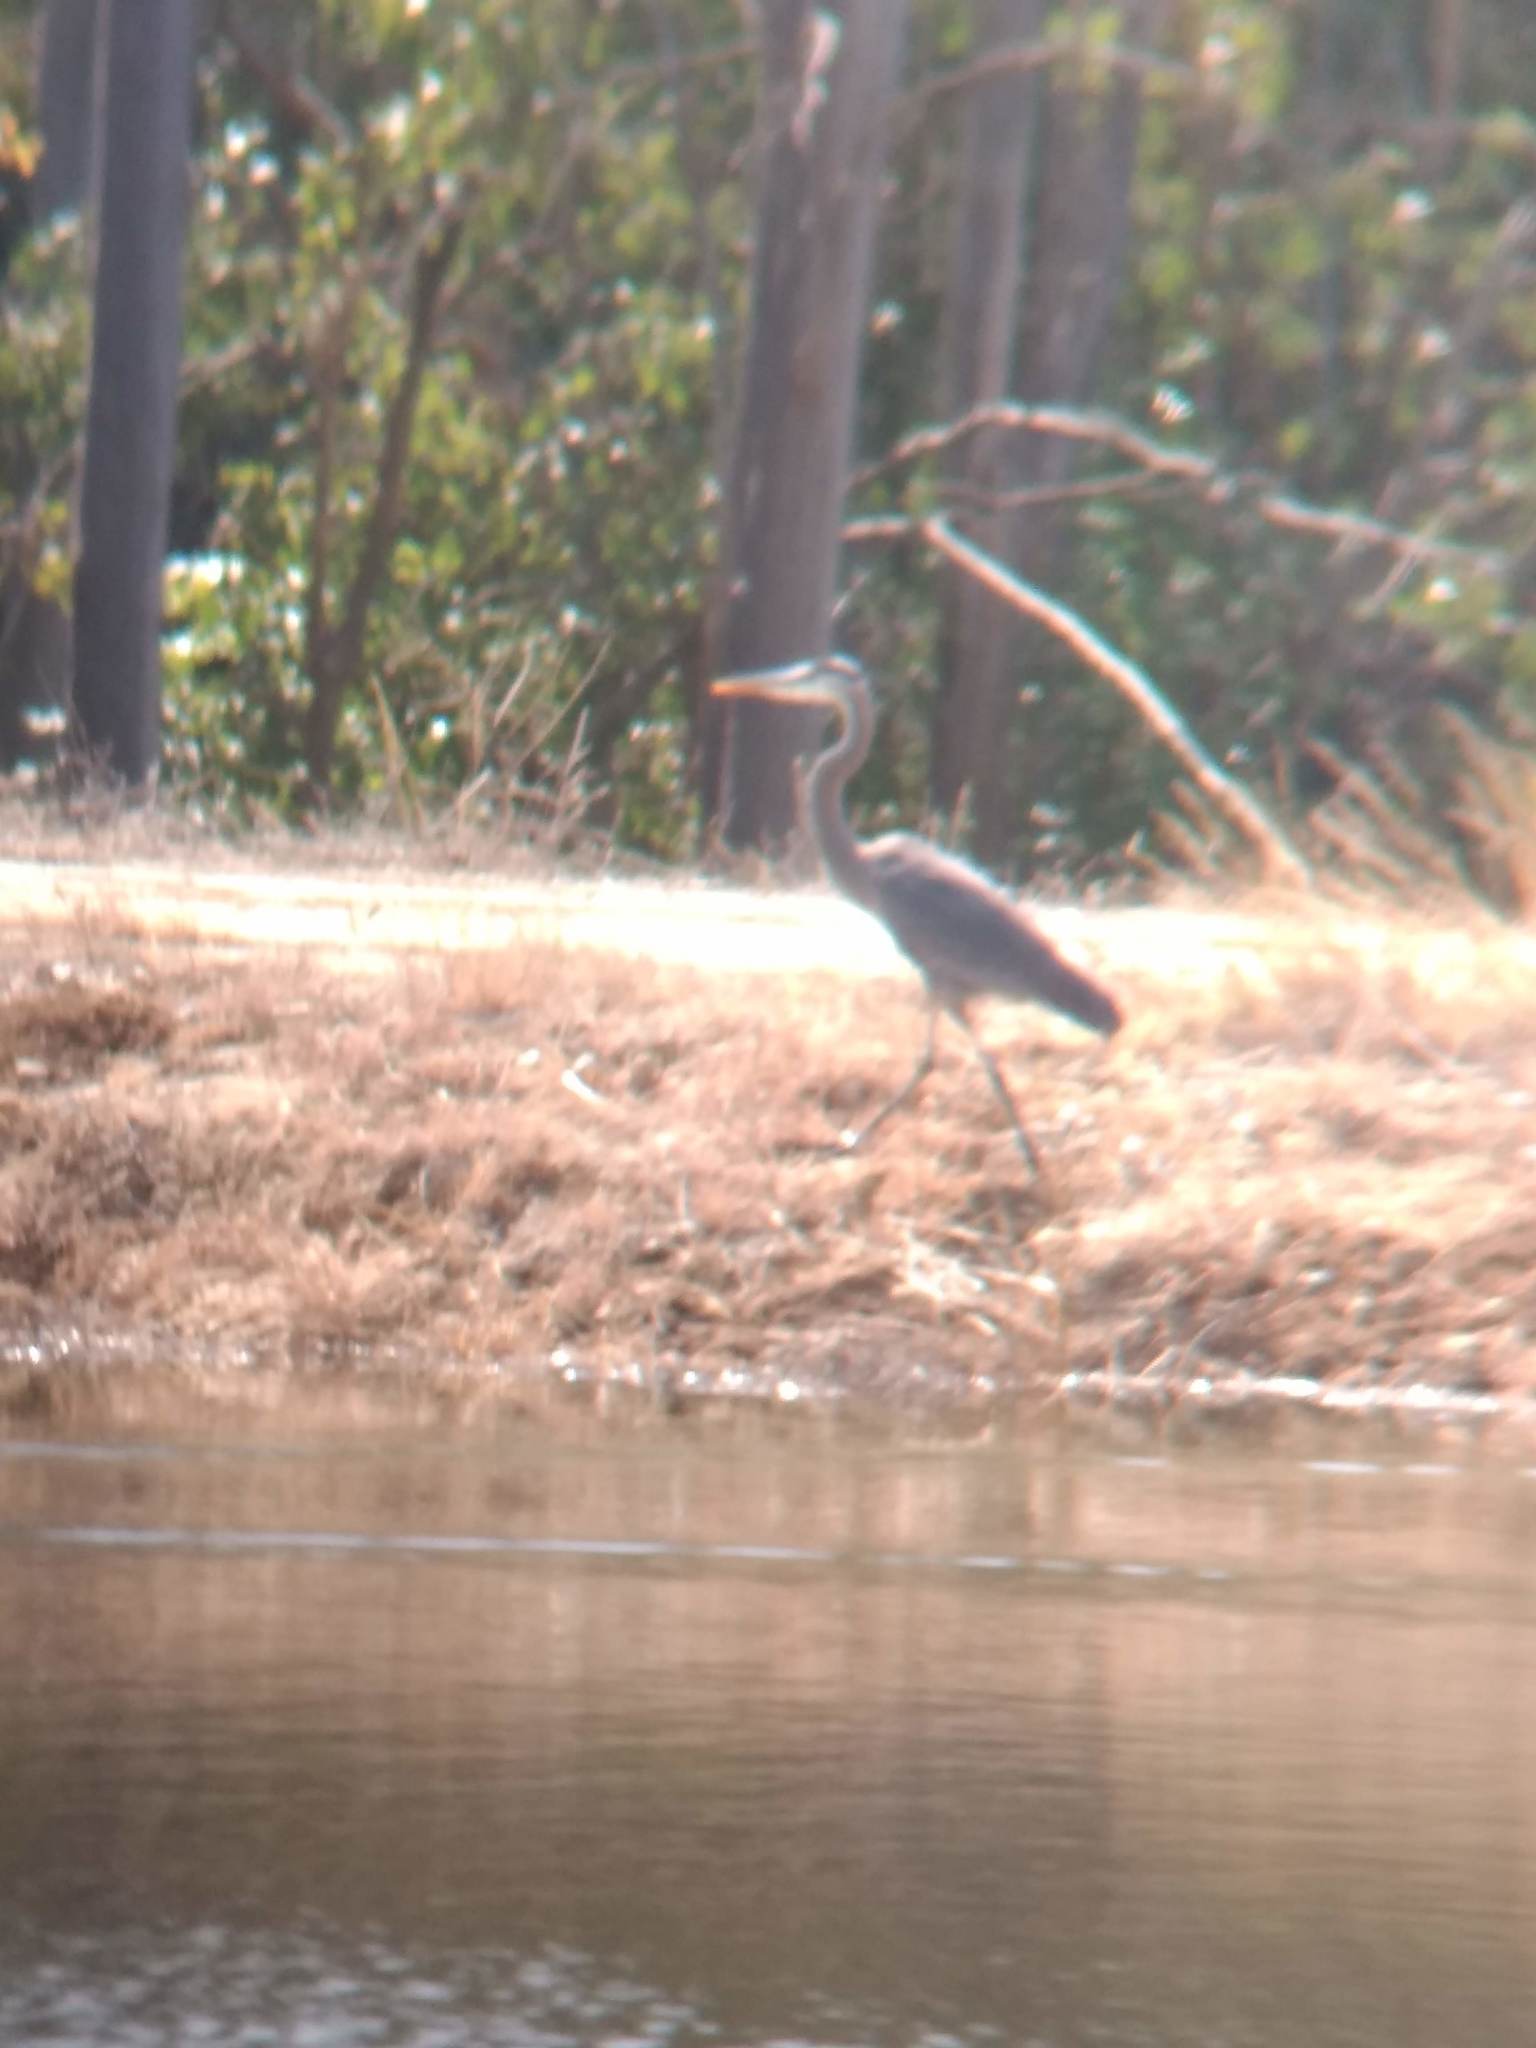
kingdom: Animalia
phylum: Chordata
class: Aves
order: Pelecaniformes
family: Ardeidae
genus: Ardea
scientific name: Ardea herodias
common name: Great blue heron
